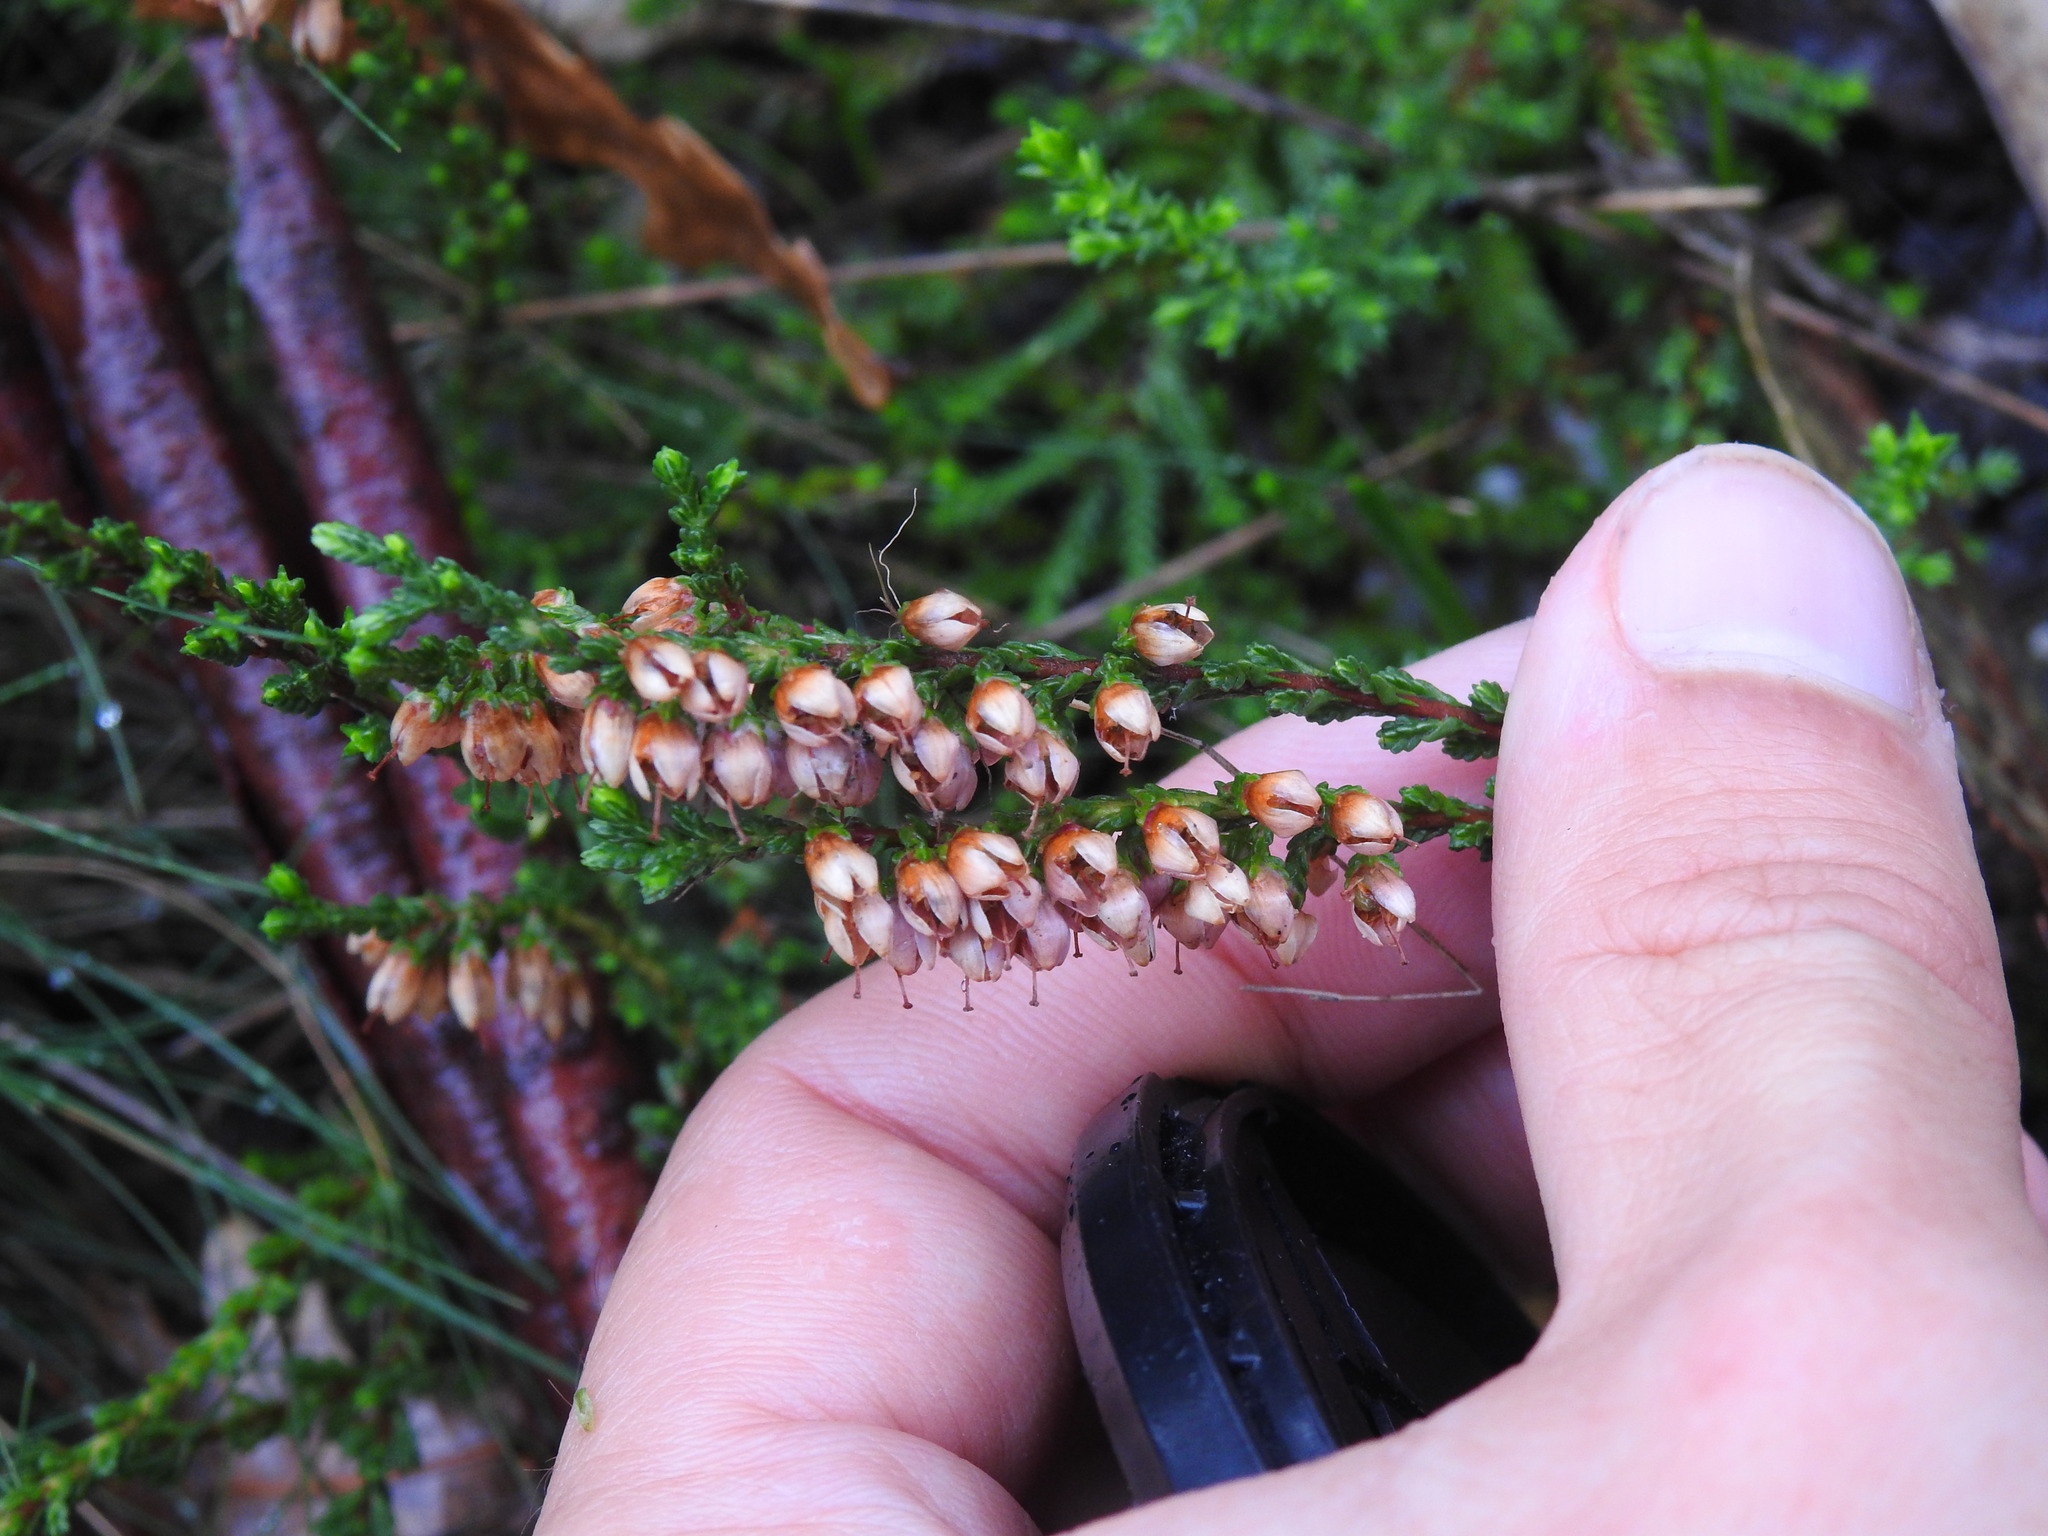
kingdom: Plantae
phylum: Tracheophyta
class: Magnoliopsida
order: Ericales
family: Ericaceae
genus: Calluna
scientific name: Calluna vulgaris
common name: Heather
